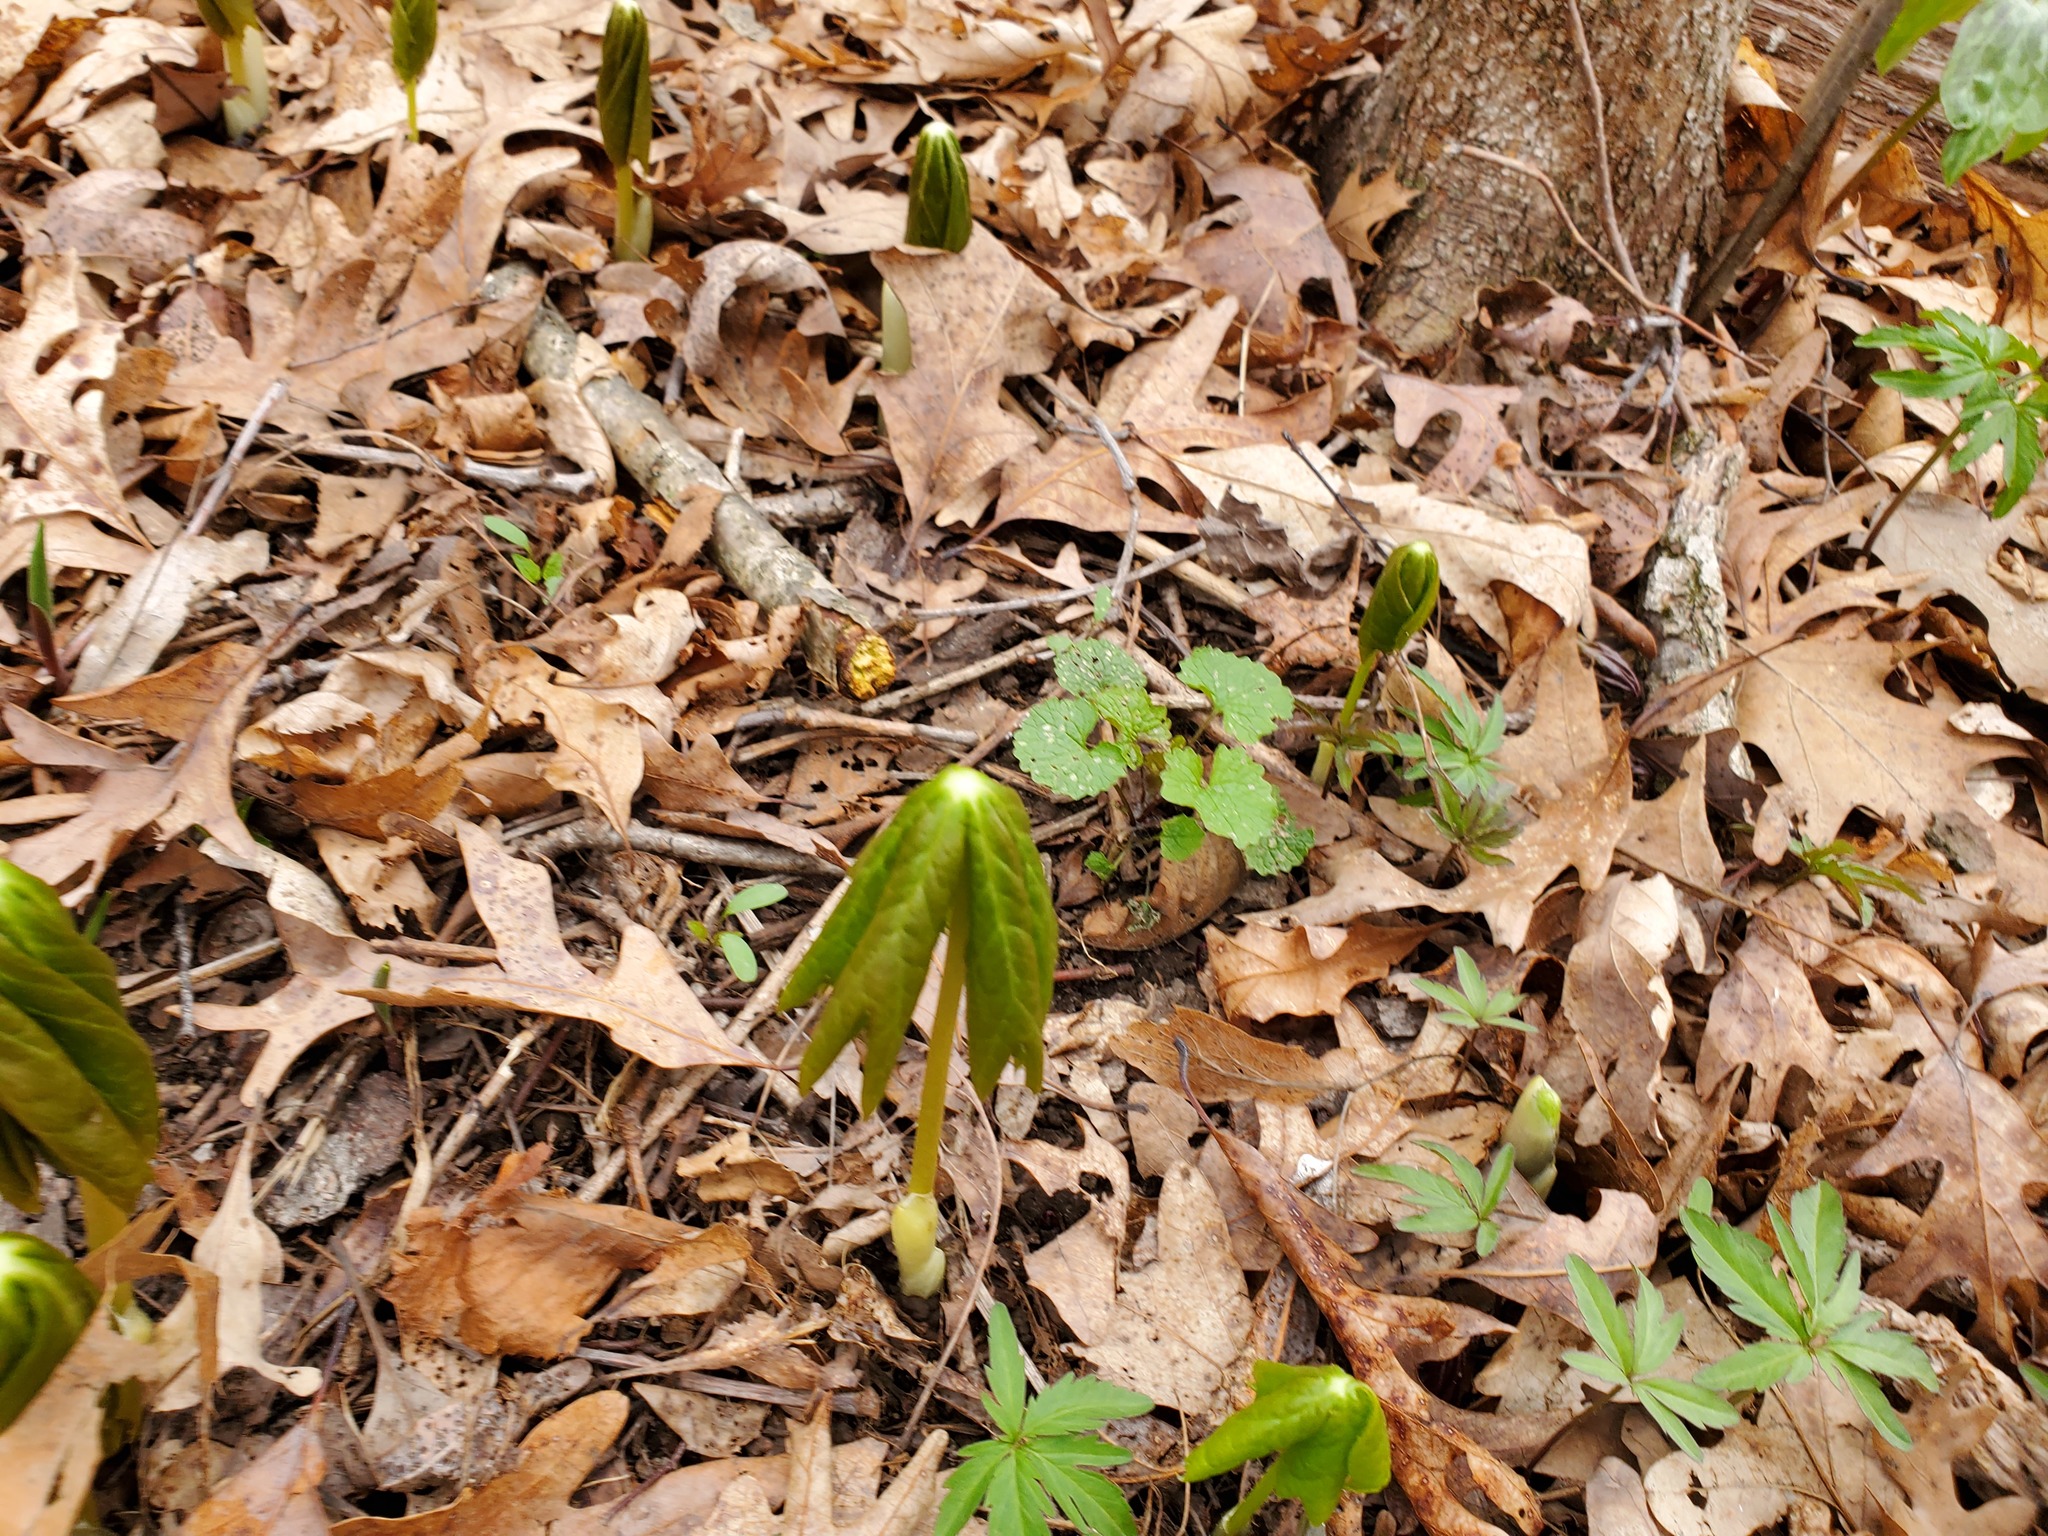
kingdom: Plantae
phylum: Tracheophyta
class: Magnoliopsida
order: Ranunculales
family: Berberidaceae
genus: Podophyllum
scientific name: Podophyllum peltatum
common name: Wild mandrake
